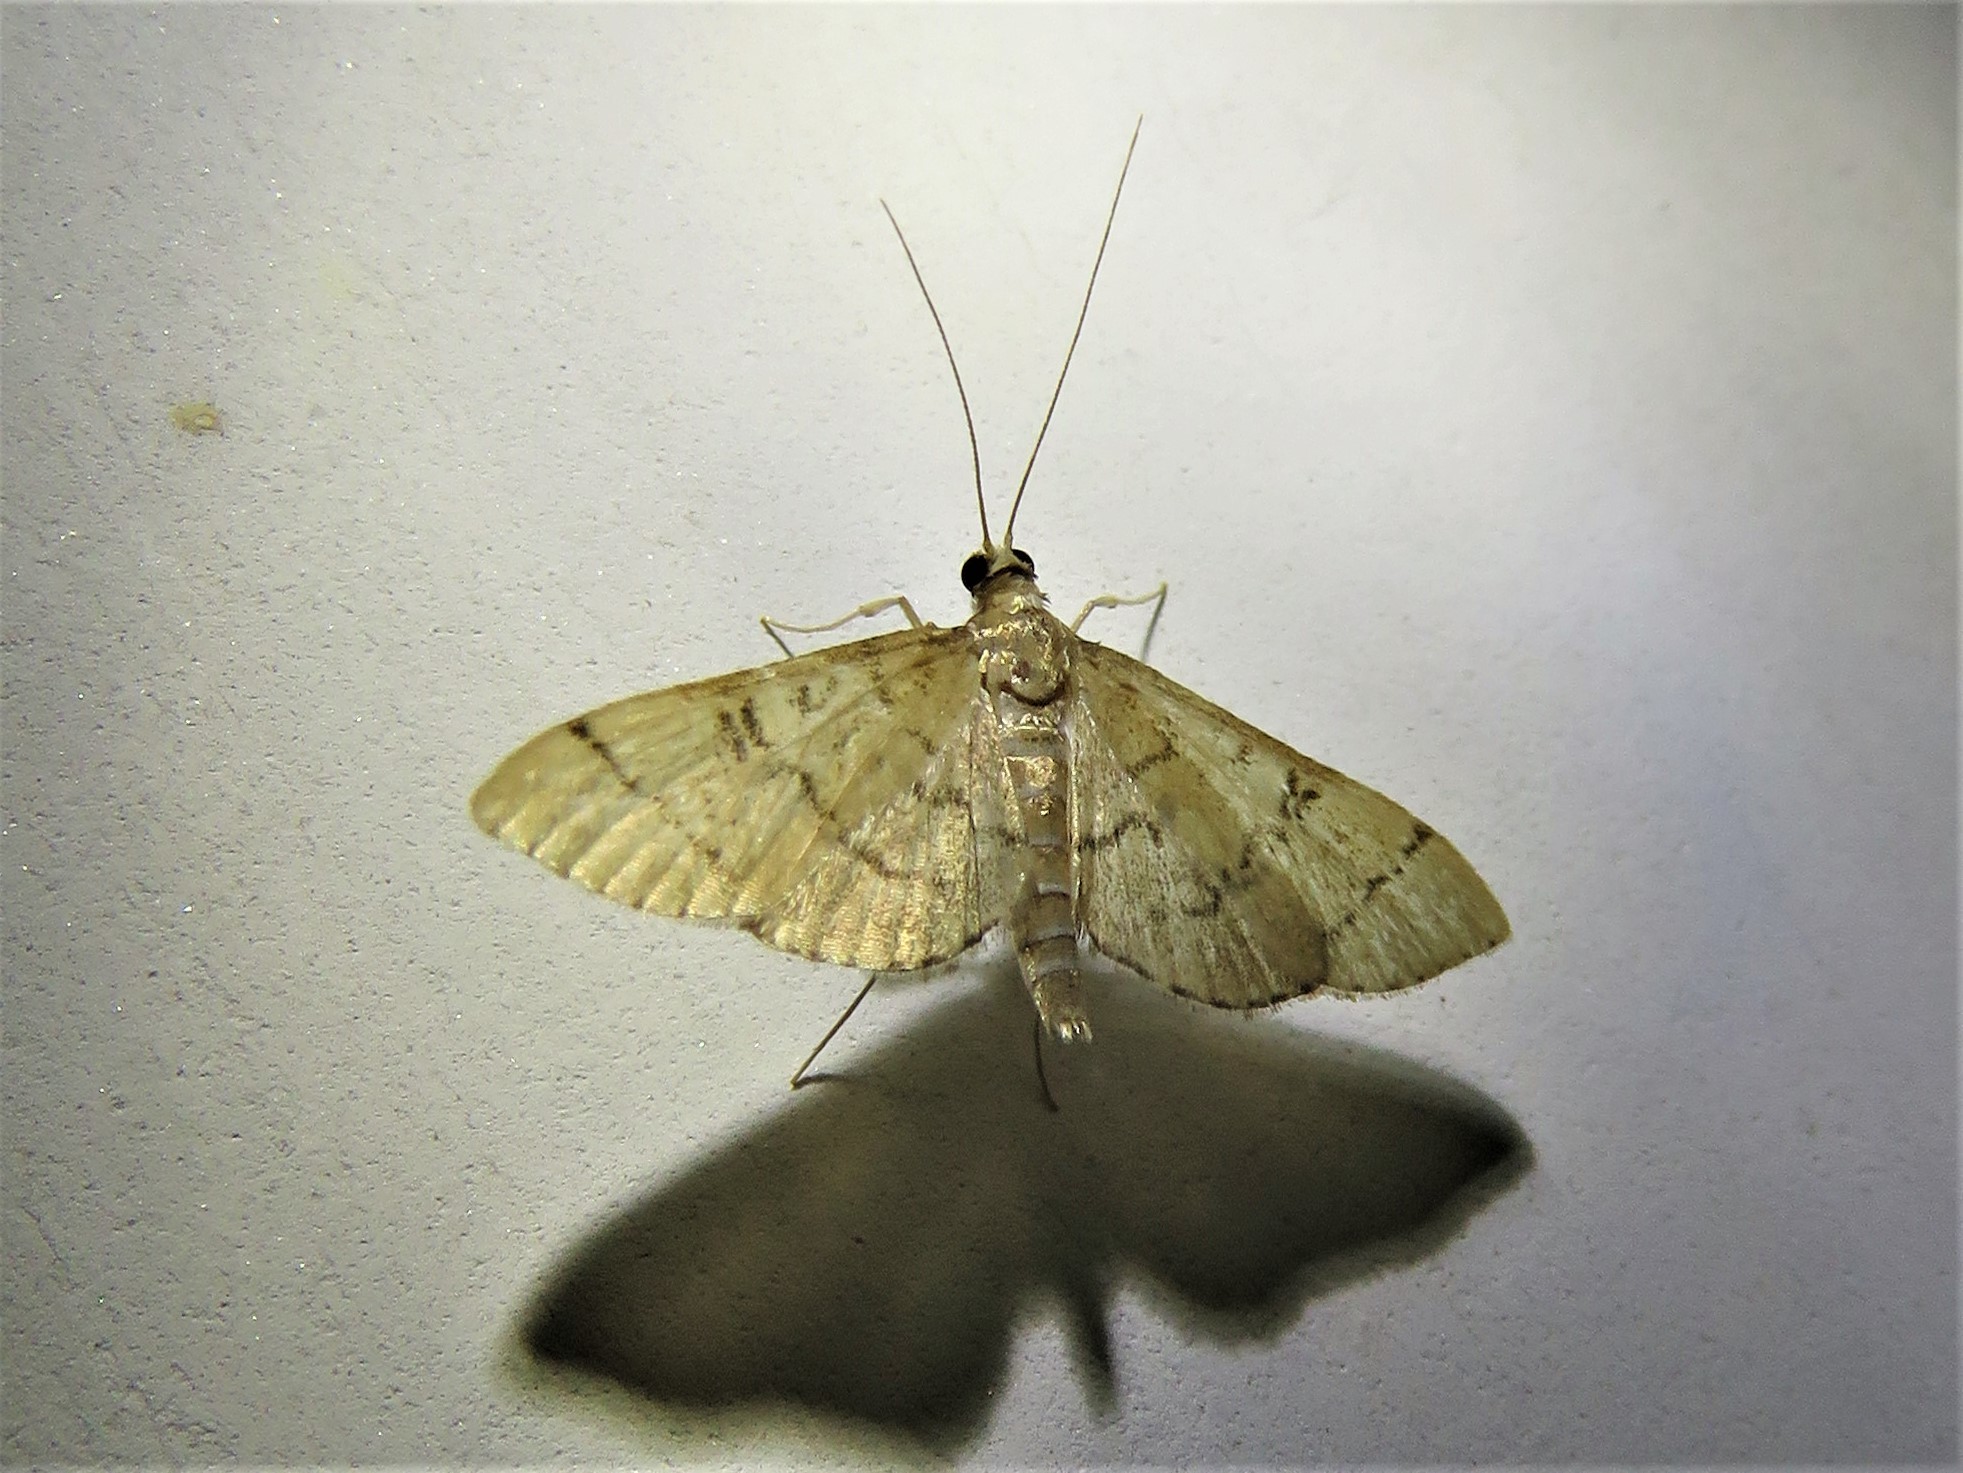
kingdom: Animalia
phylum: Arthropoda
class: Insecta
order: Lepidoptera
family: Crambidae
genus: Lamprosema
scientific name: Lamprosema Blepharomastix ranalis
